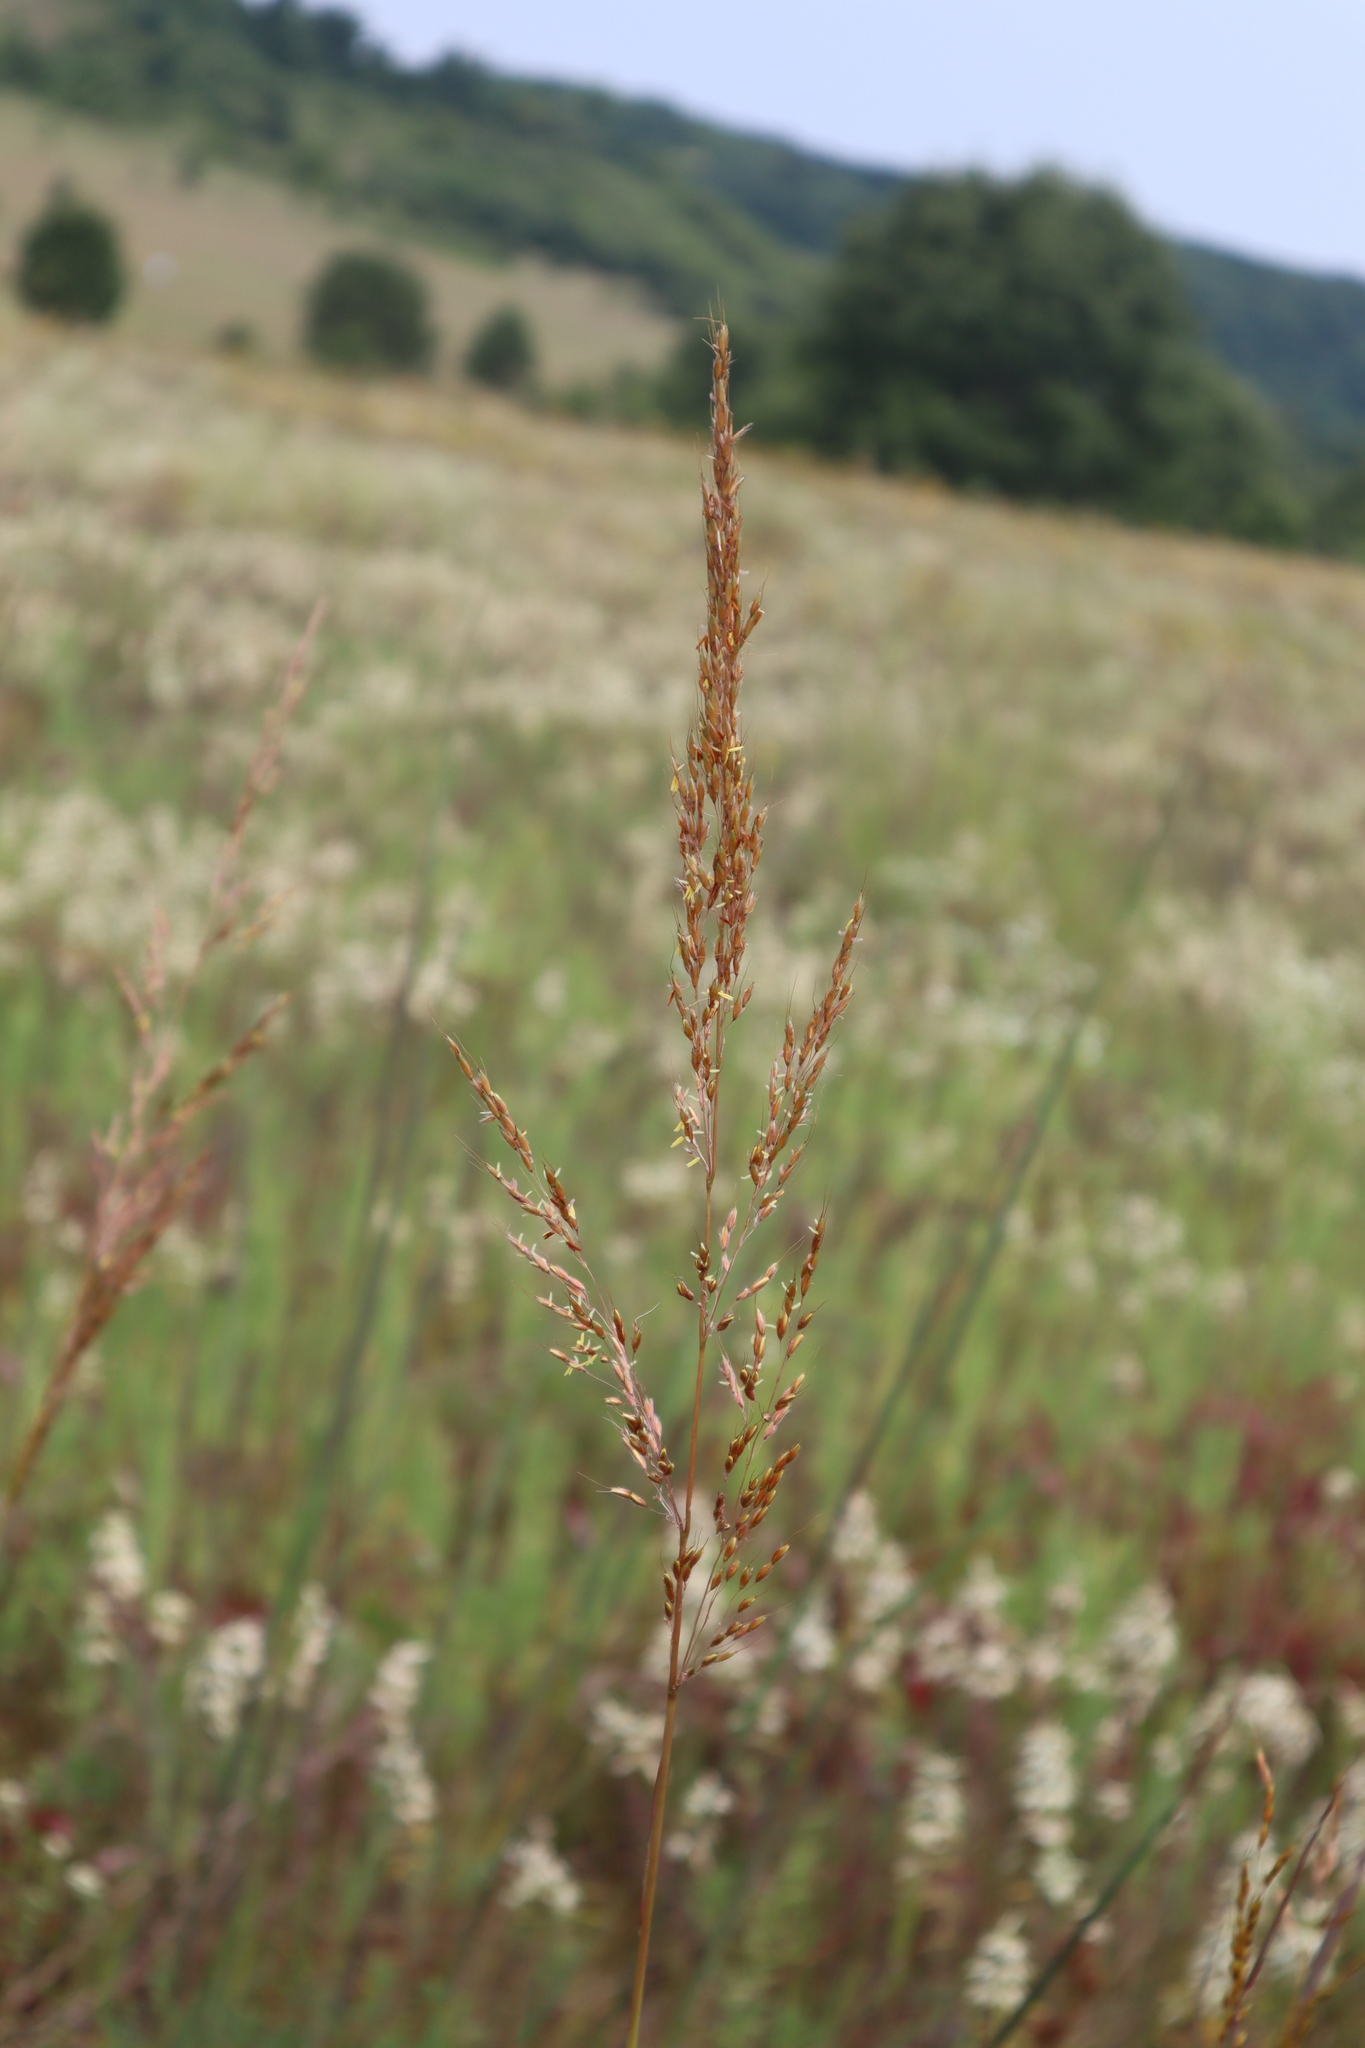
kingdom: Plantae
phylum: Tracheophyta
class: Liliopsida
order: Poales
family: Poaceae
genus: Sorghastrum
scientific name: Sorghastrum nutans
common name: Indian grass
